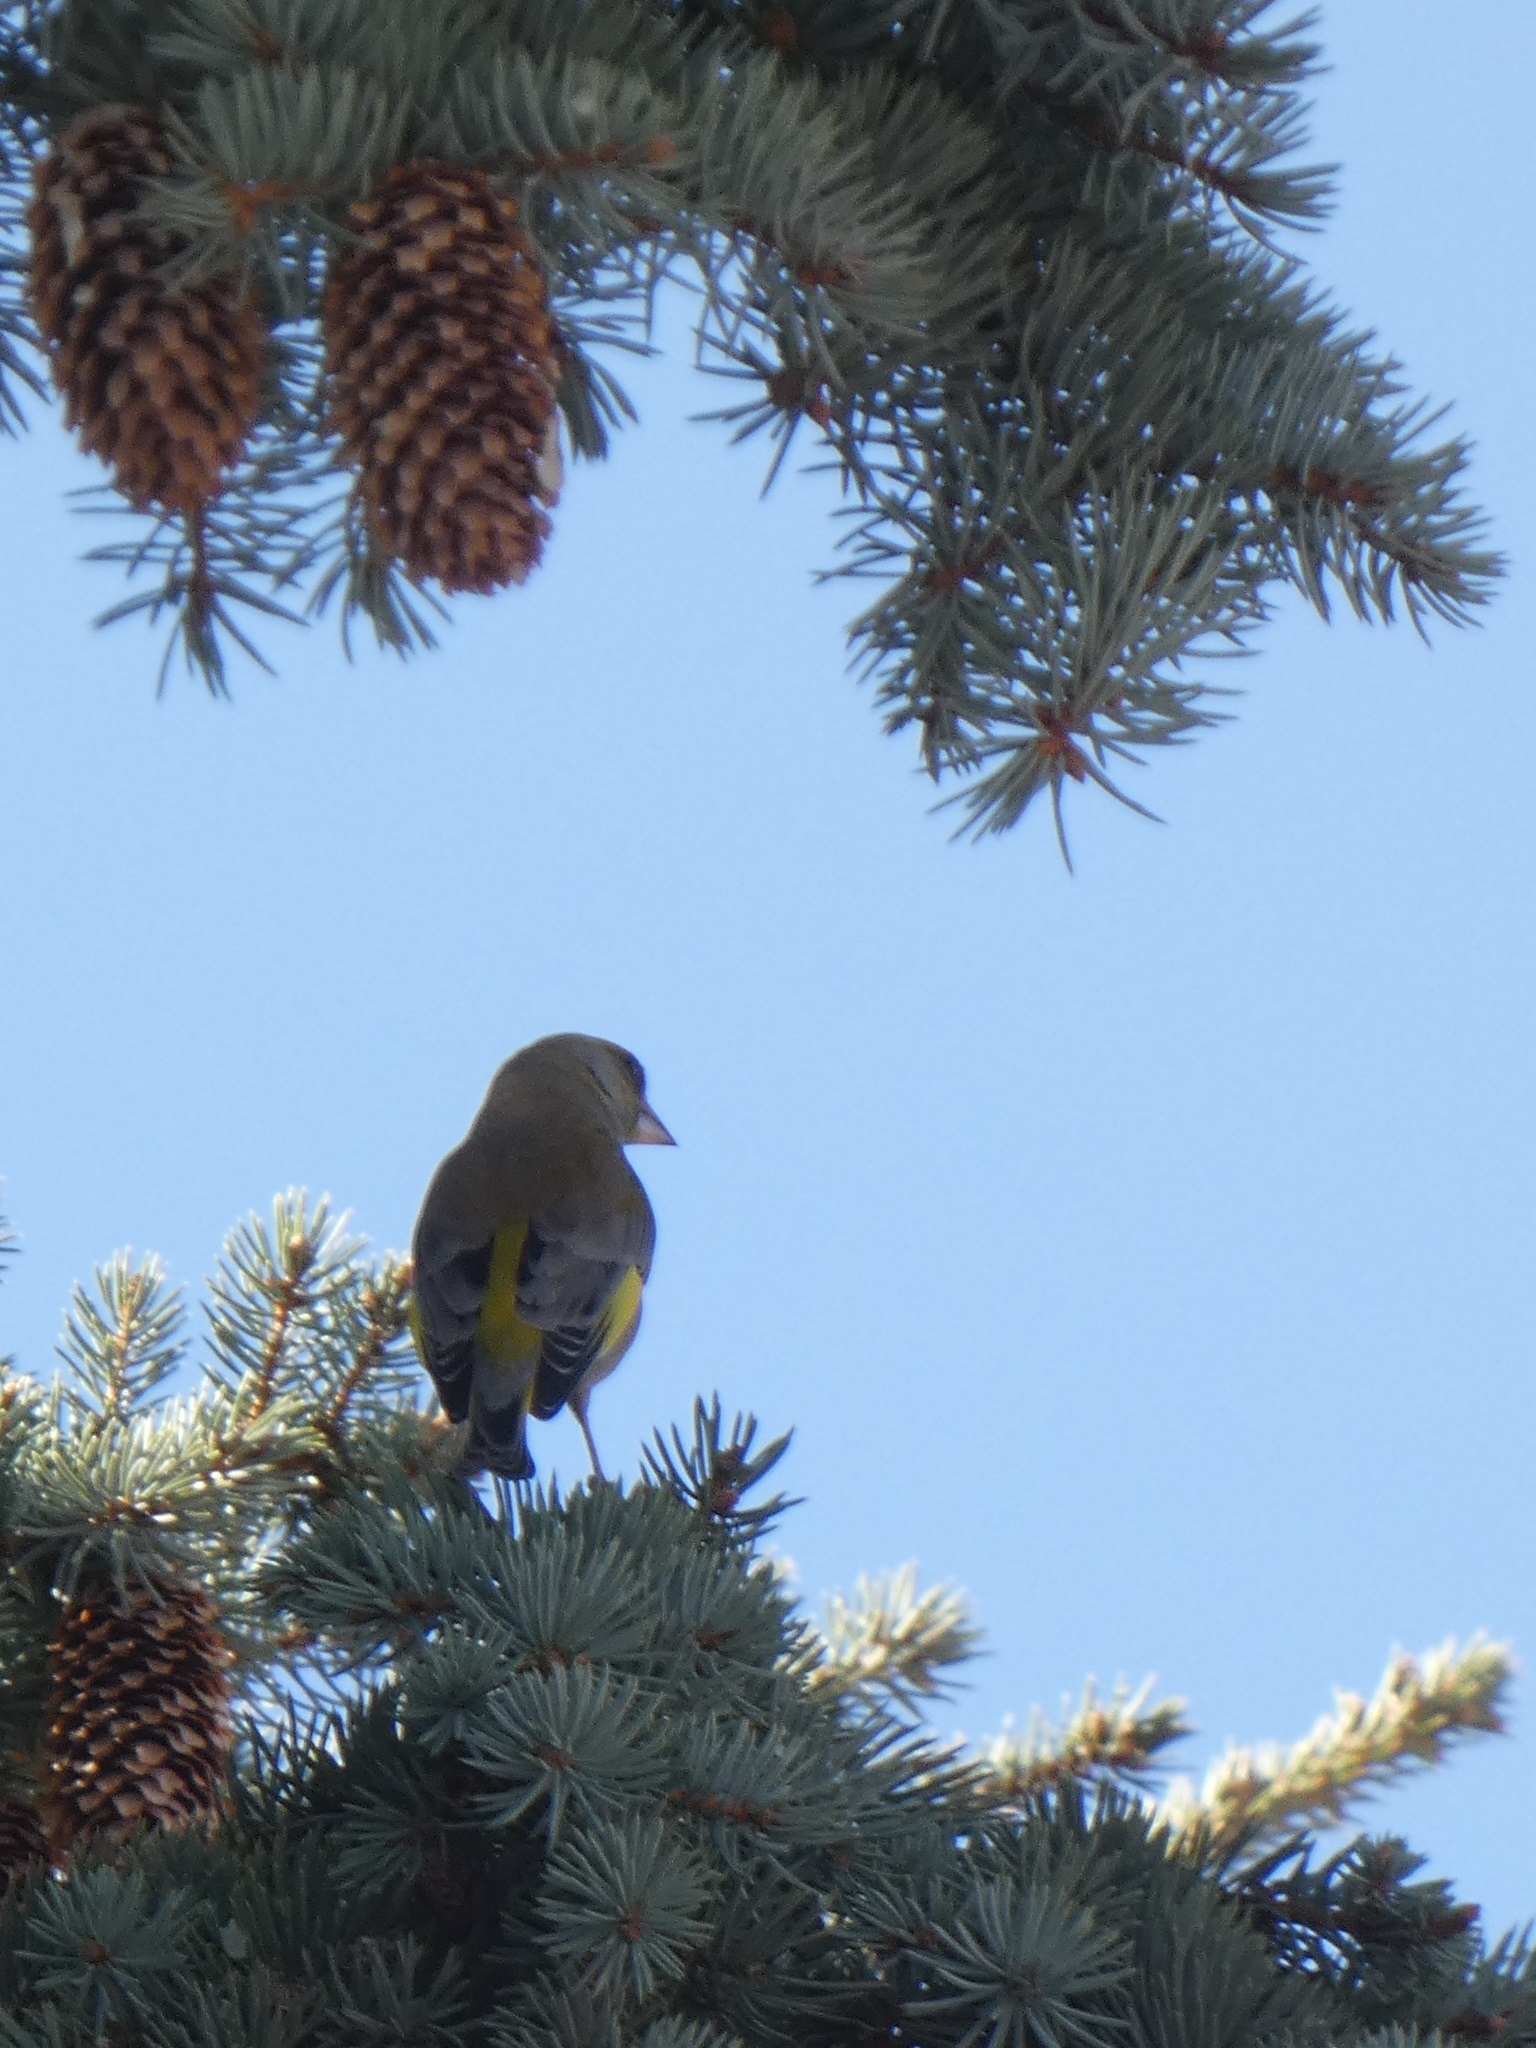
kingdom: Plantae
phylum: Tracheophyta
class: Liliopsida
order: Poales
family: Poaceae
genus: Chloris
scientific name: Chloris chloris
